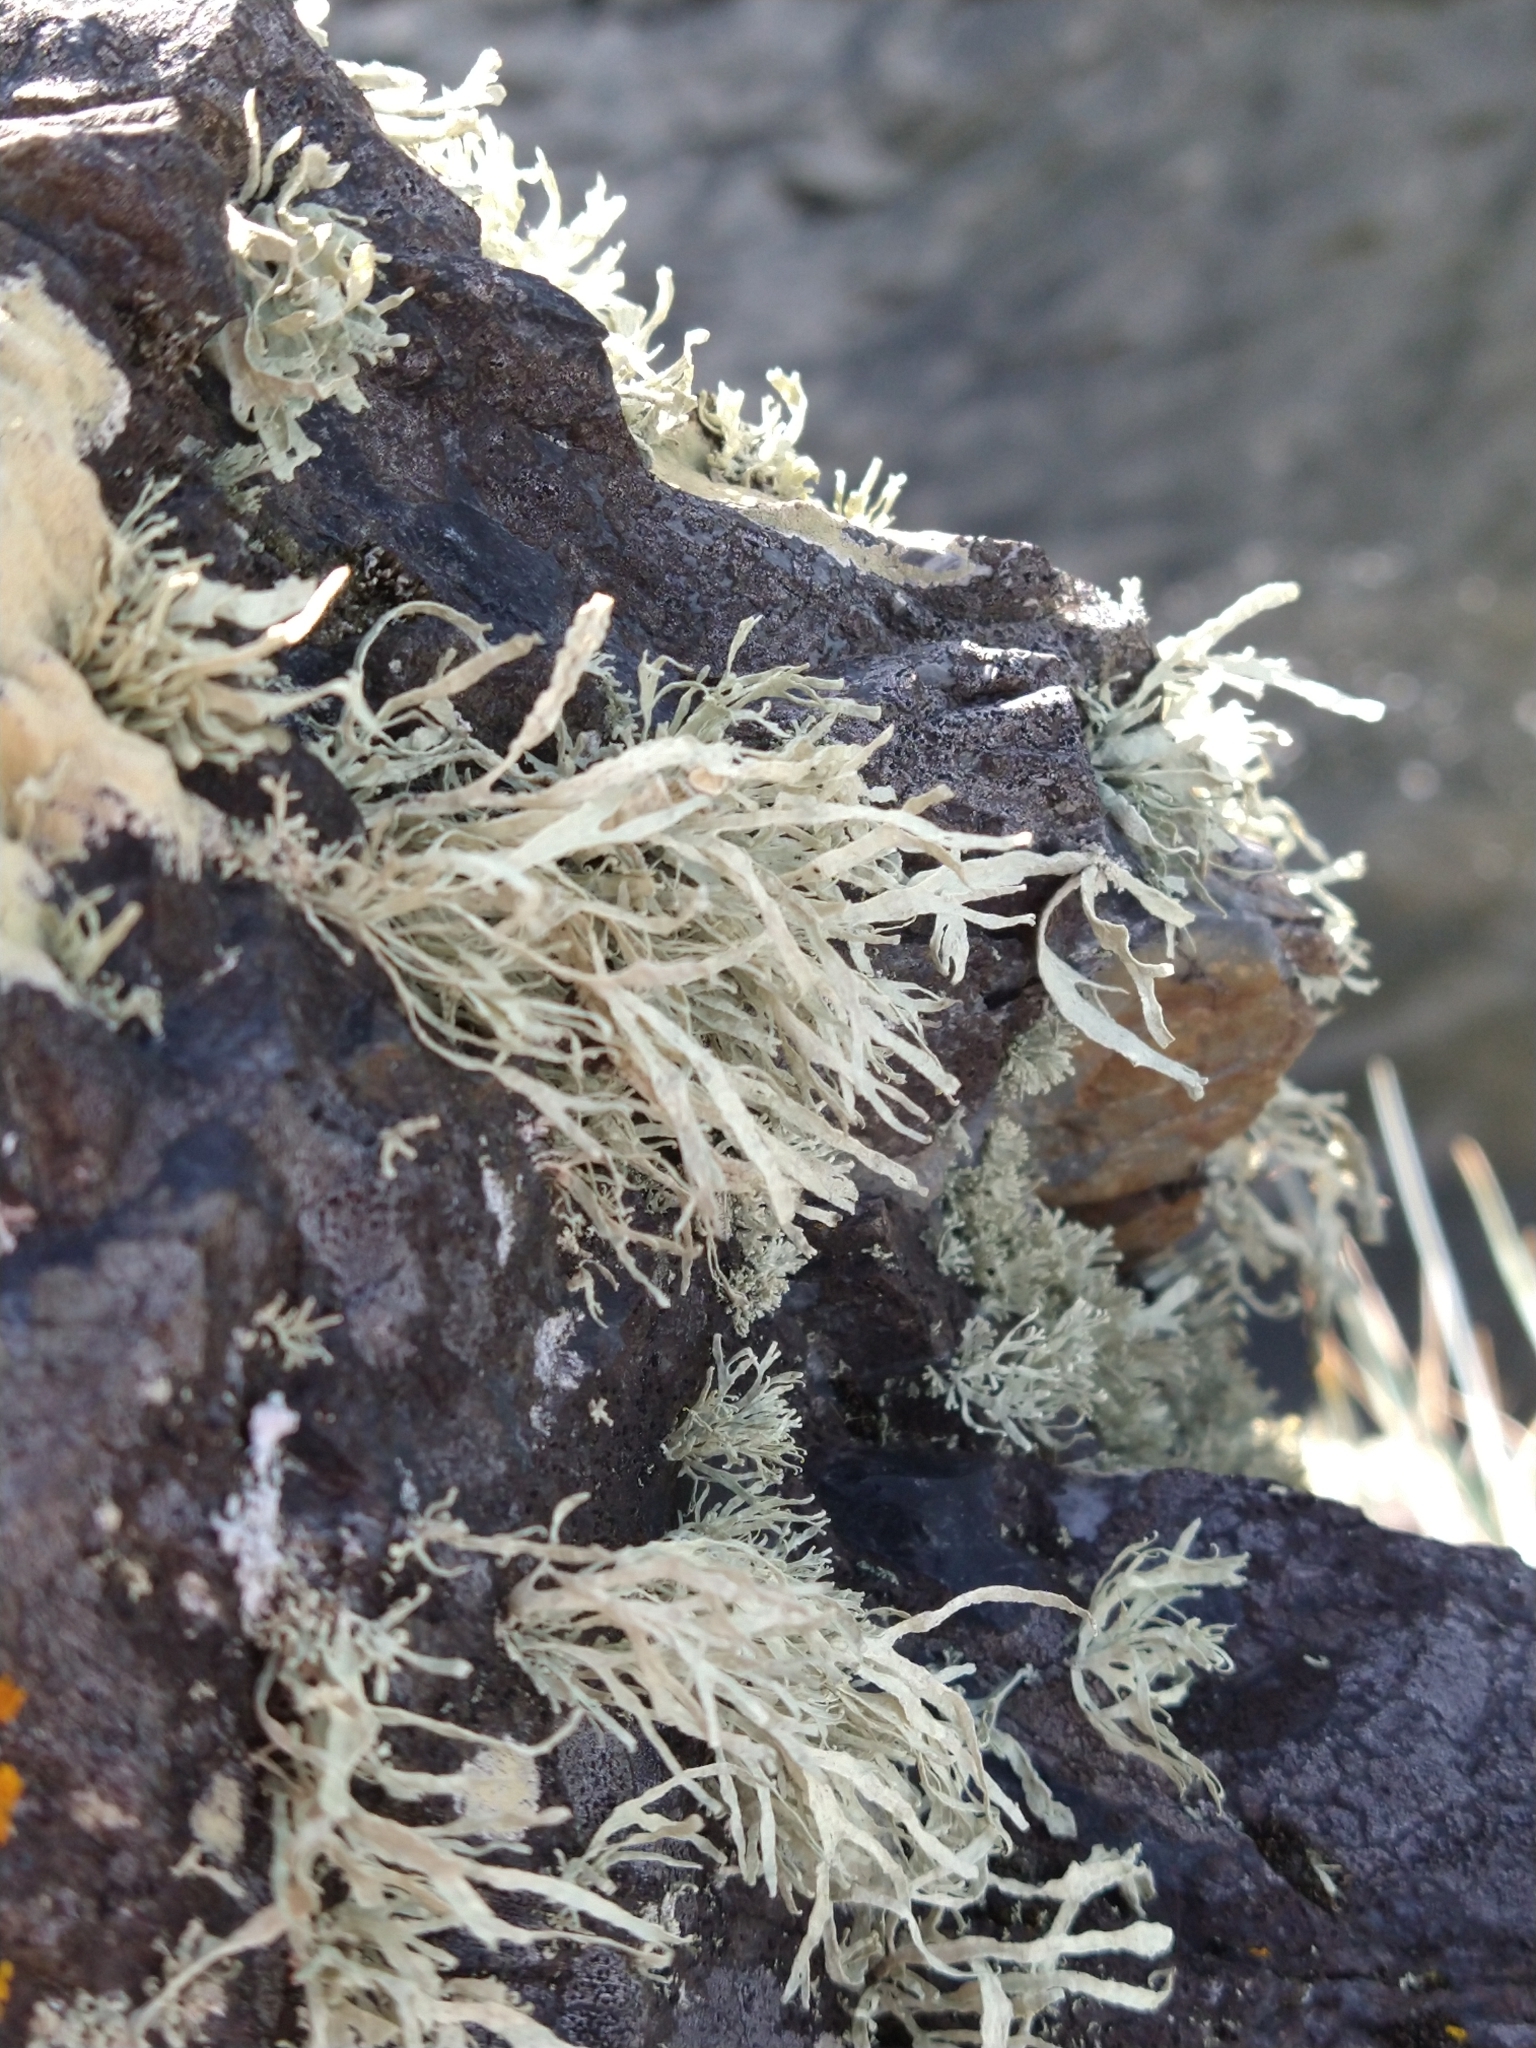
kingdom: Fungi
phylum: Ascomycota
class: Lecanoromycetes
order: Lecanorales
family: Ramalinaceae
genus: Ramalina
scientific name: Ramalina laevigata
